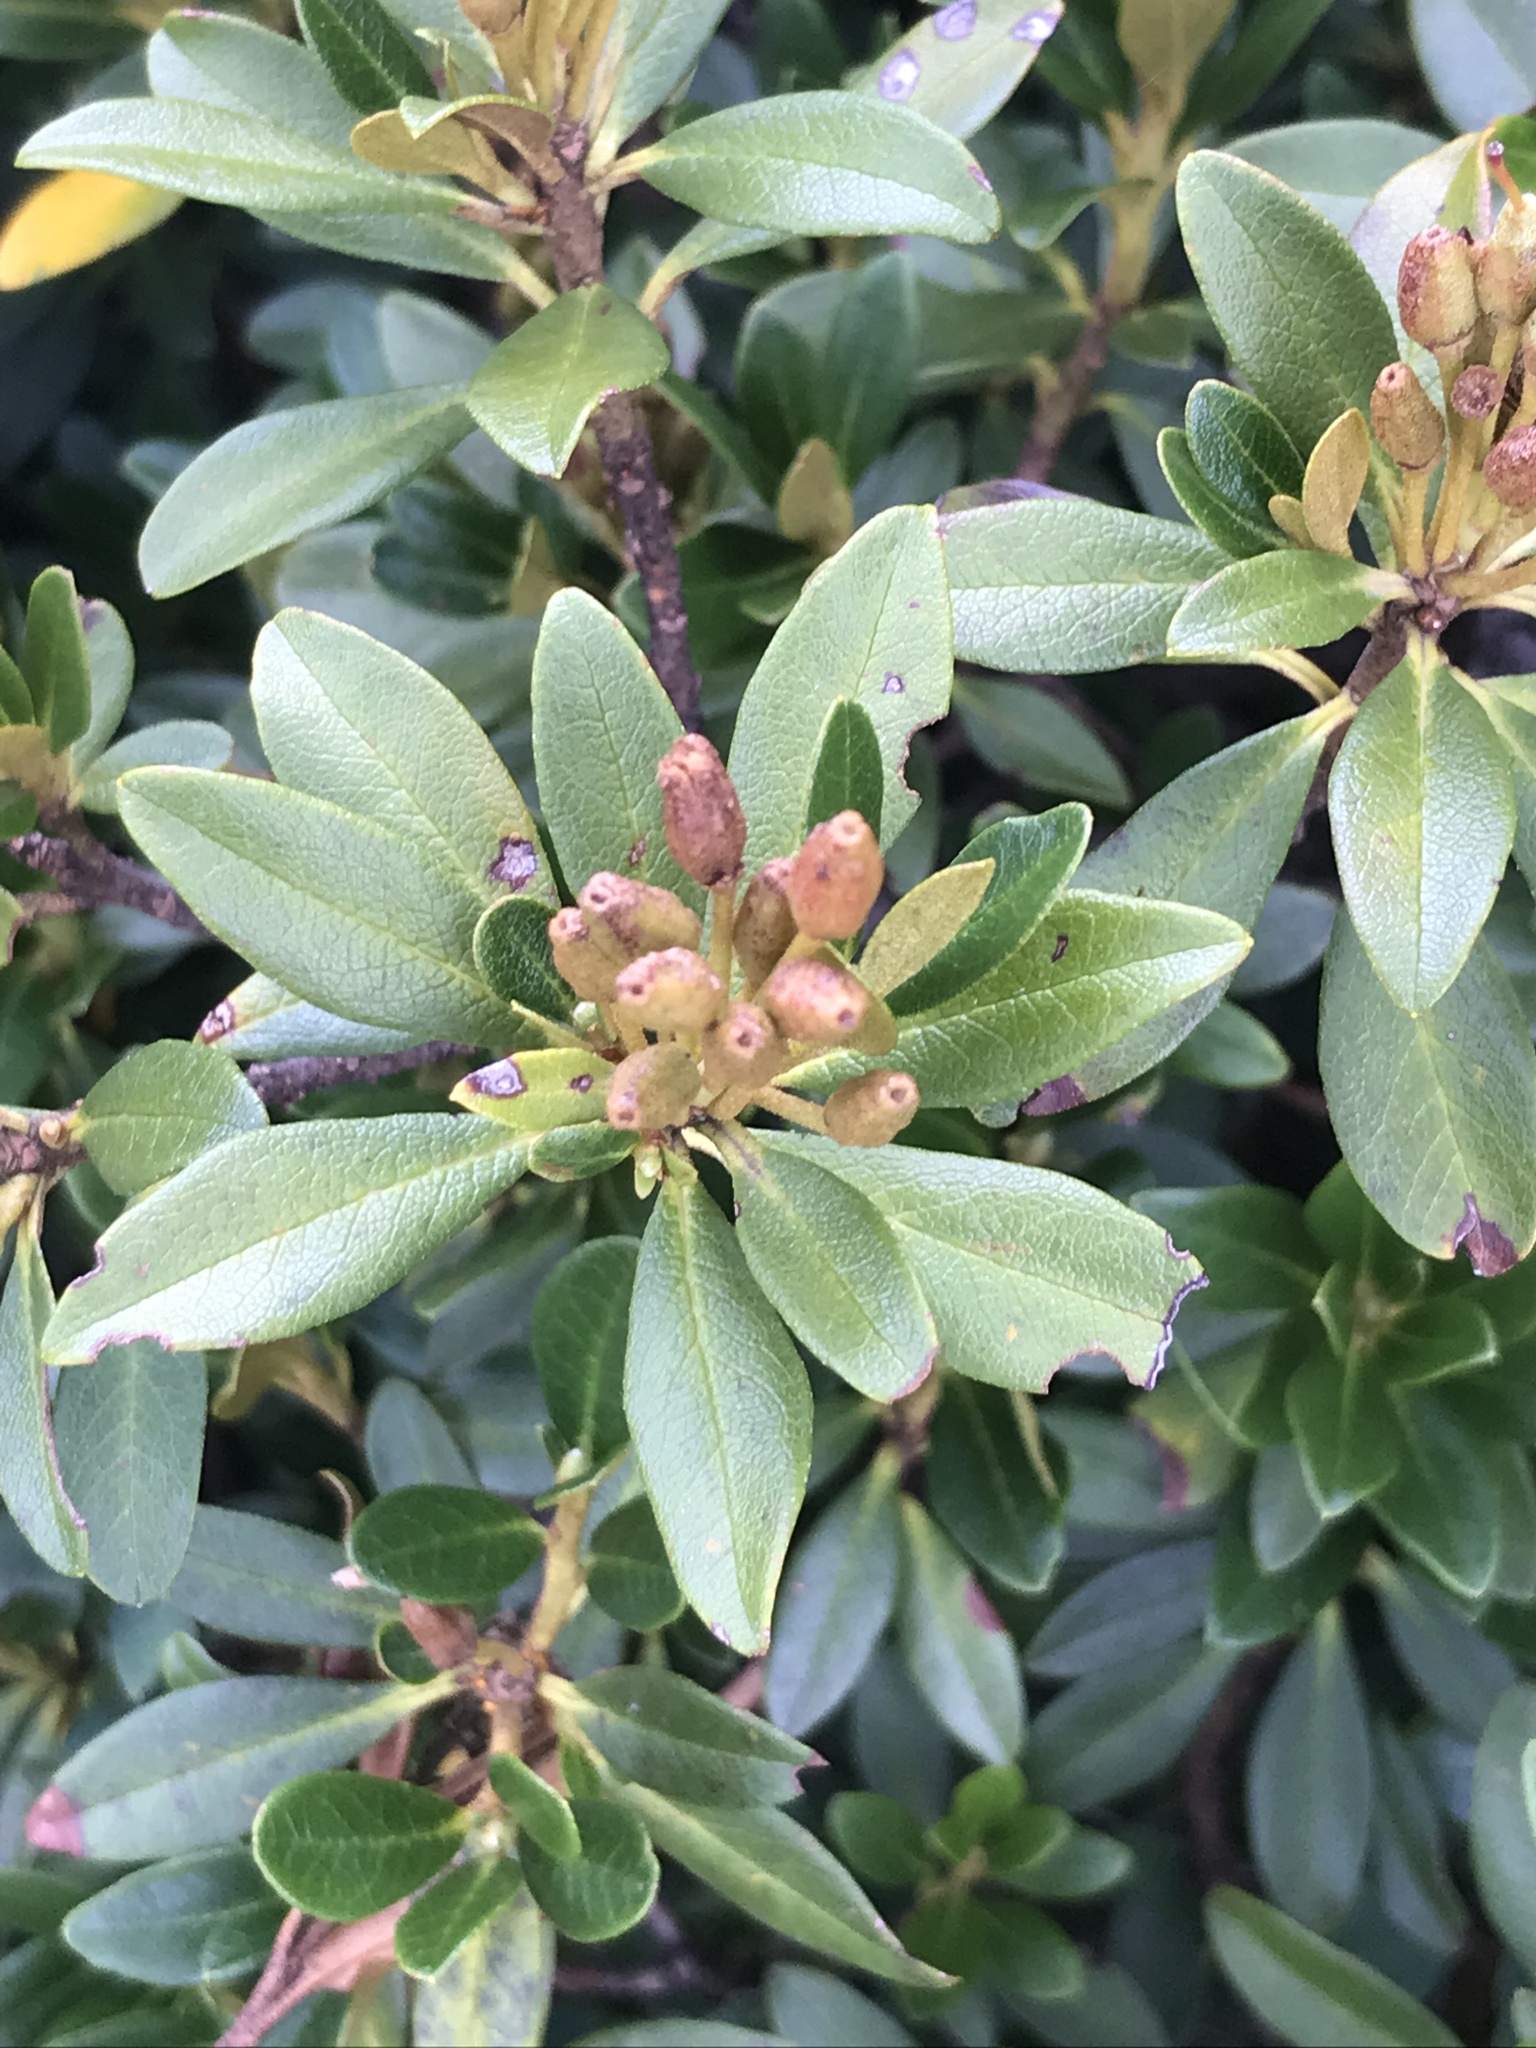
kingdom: Plantae
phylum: Tracheophyta
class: Magnoliopsida
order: Ericales
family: Ericaceae
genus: Rhododendron
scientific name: Rhododendron ferrugineum
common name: Alpenrose
